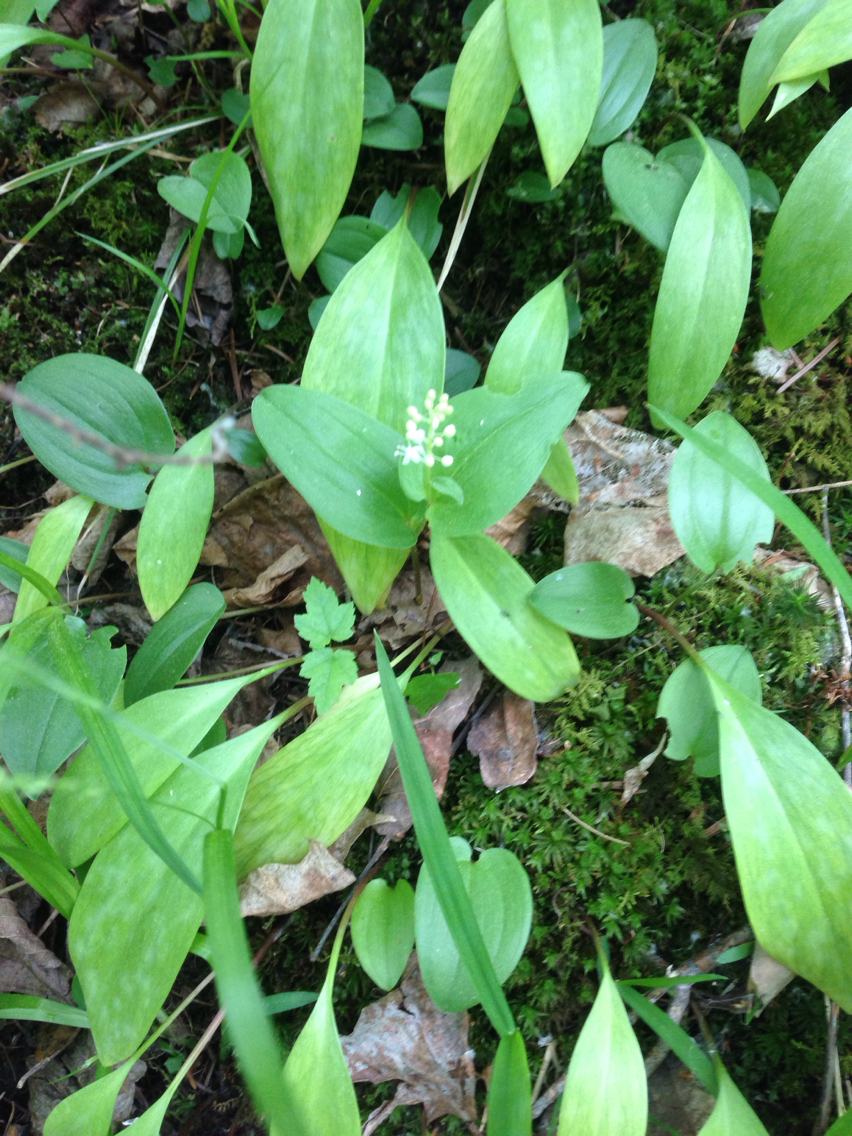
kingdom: Plantae
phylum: Tracheophyta
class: Liliopsida
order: Asparagales
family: Asparagaceae
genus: Maianthemum
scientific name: Maianthemum canadense
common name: False lily-of-the-valley
